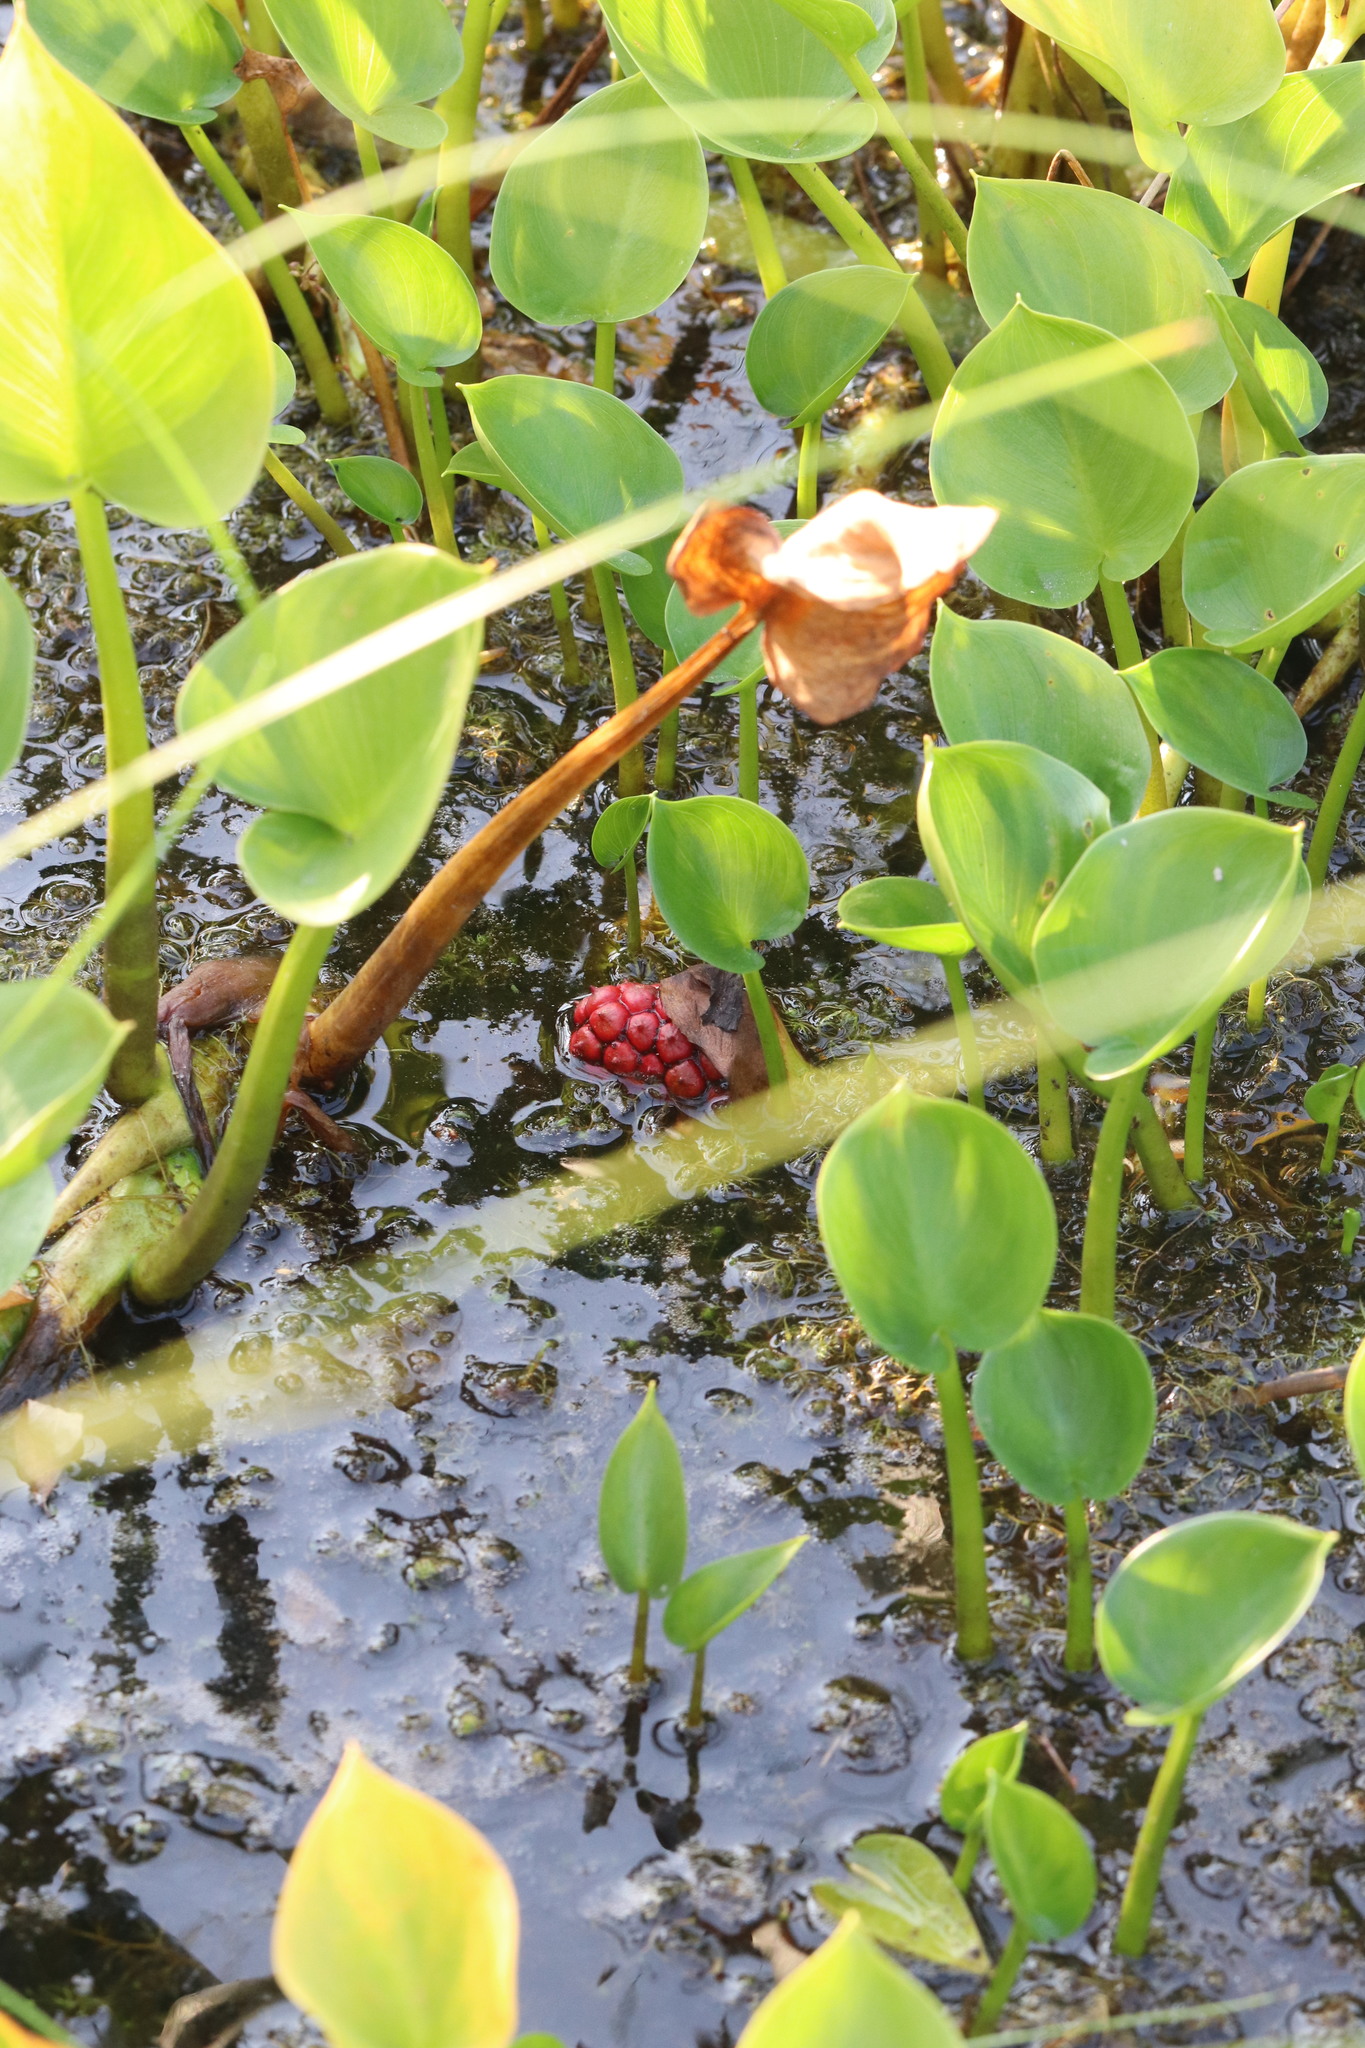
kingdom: Plantae
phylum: Tracheophyta
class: Liliopsida
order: Alismatales
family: Araceae
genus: Calla
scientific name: Calla palustris
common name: Bog arum
